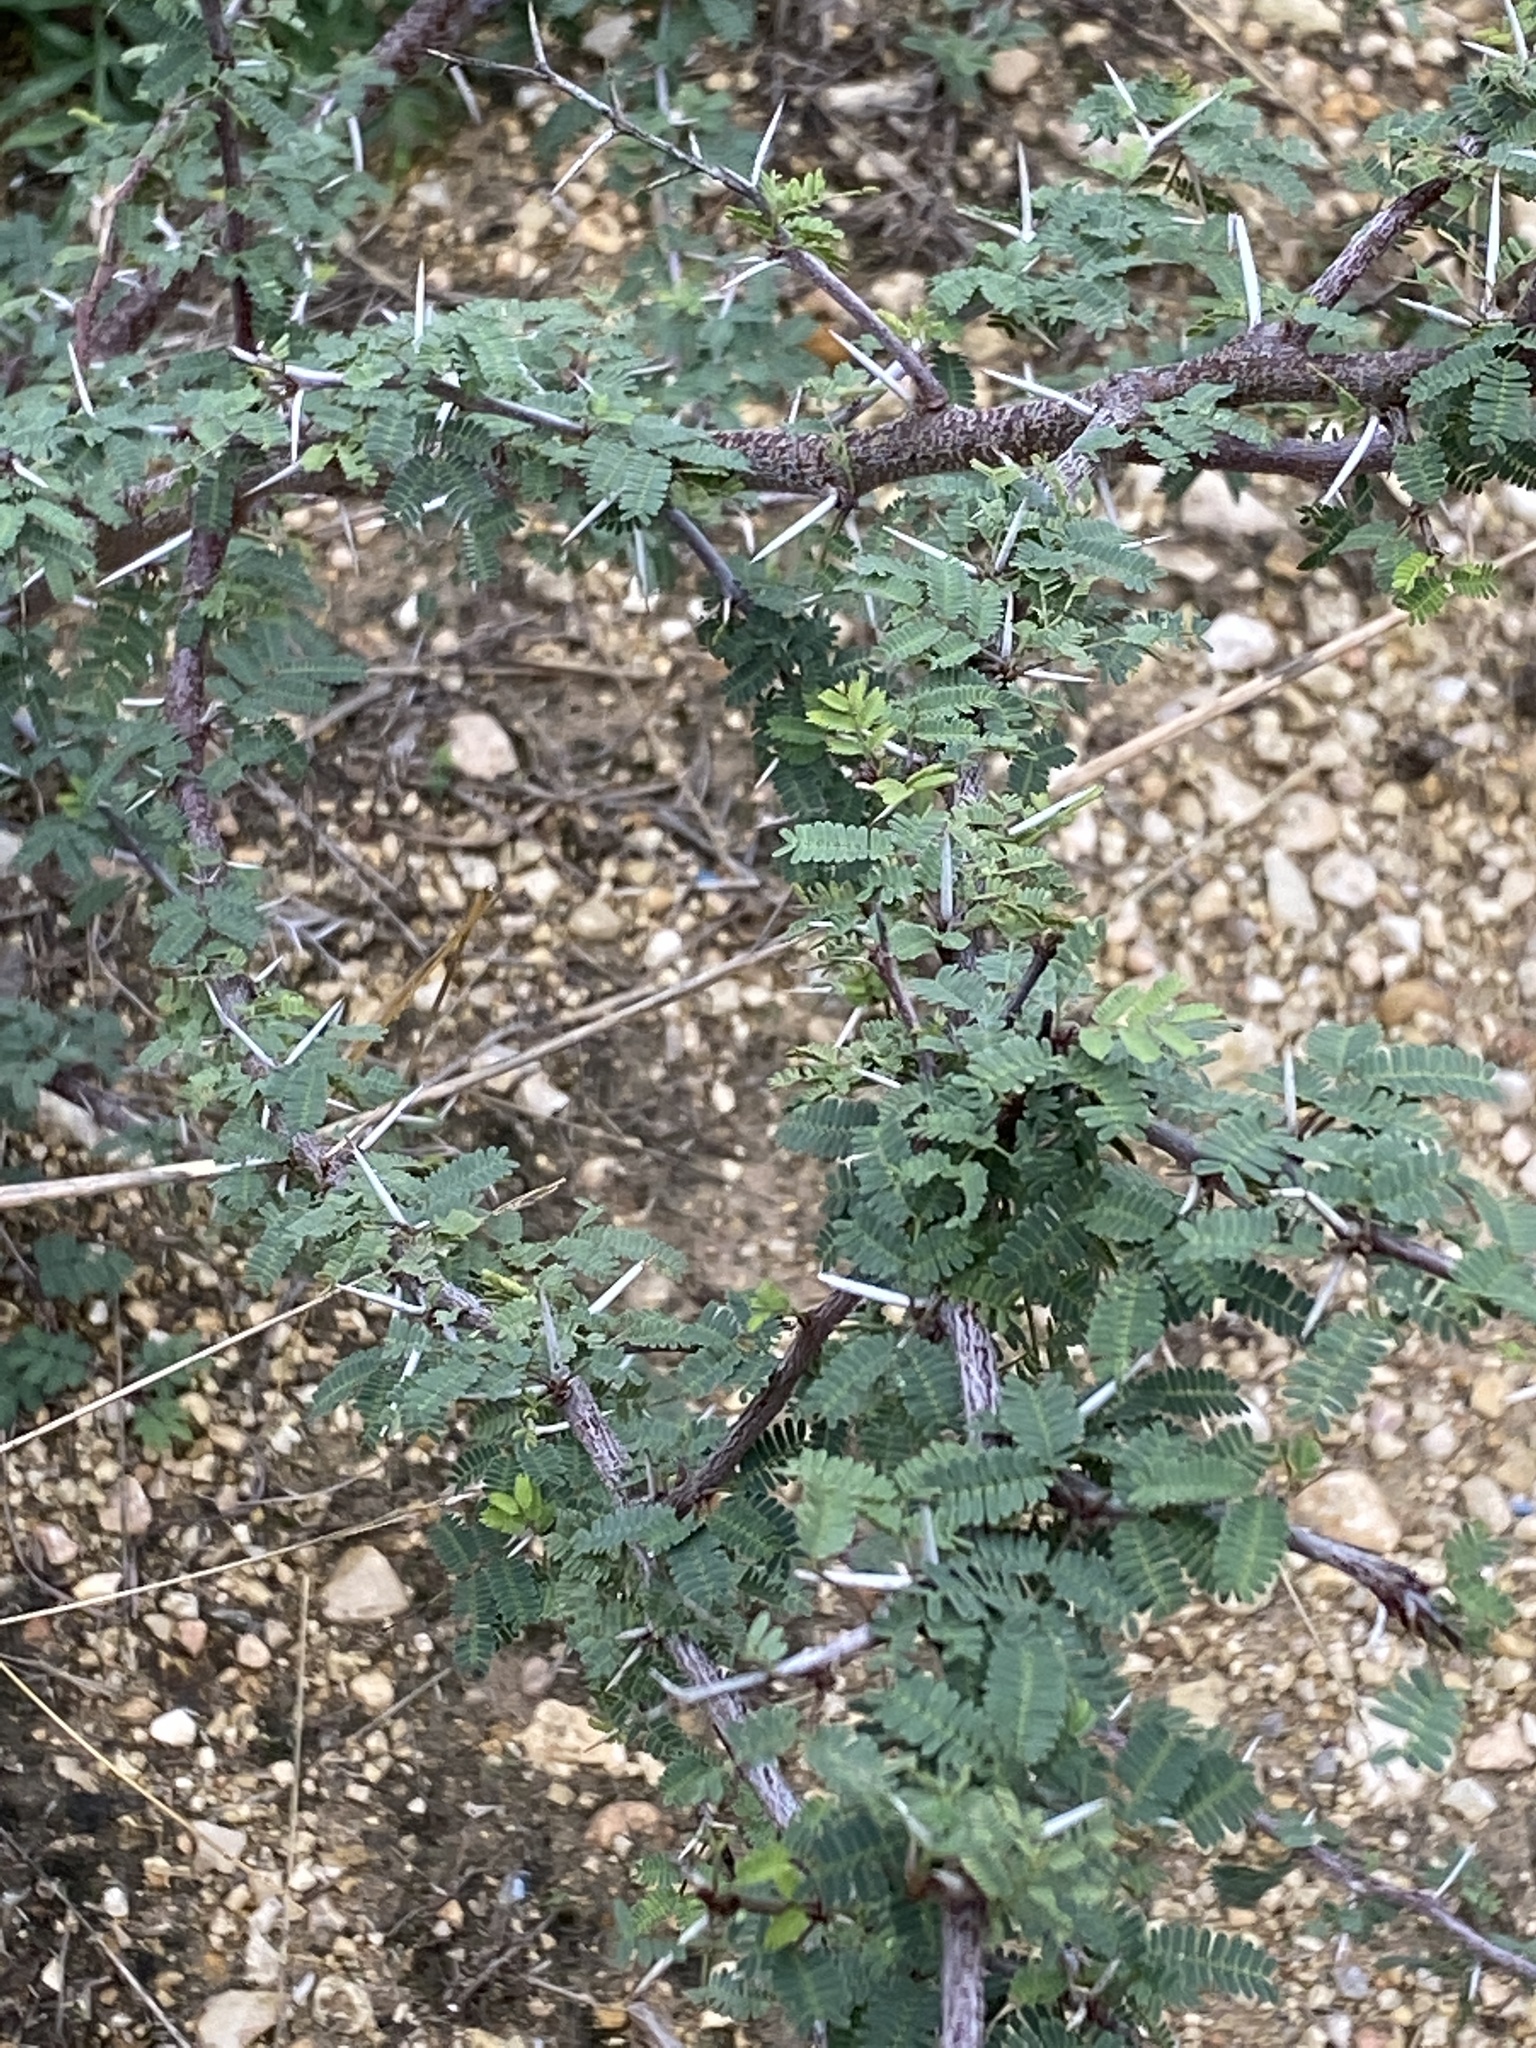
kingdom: Plantae
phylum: Tracheophyta
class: Magnoliopsida
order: Fabales
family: Fabaceae
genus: Vachellia
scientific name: Vachellia farnesiana
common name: Sweet acacia
